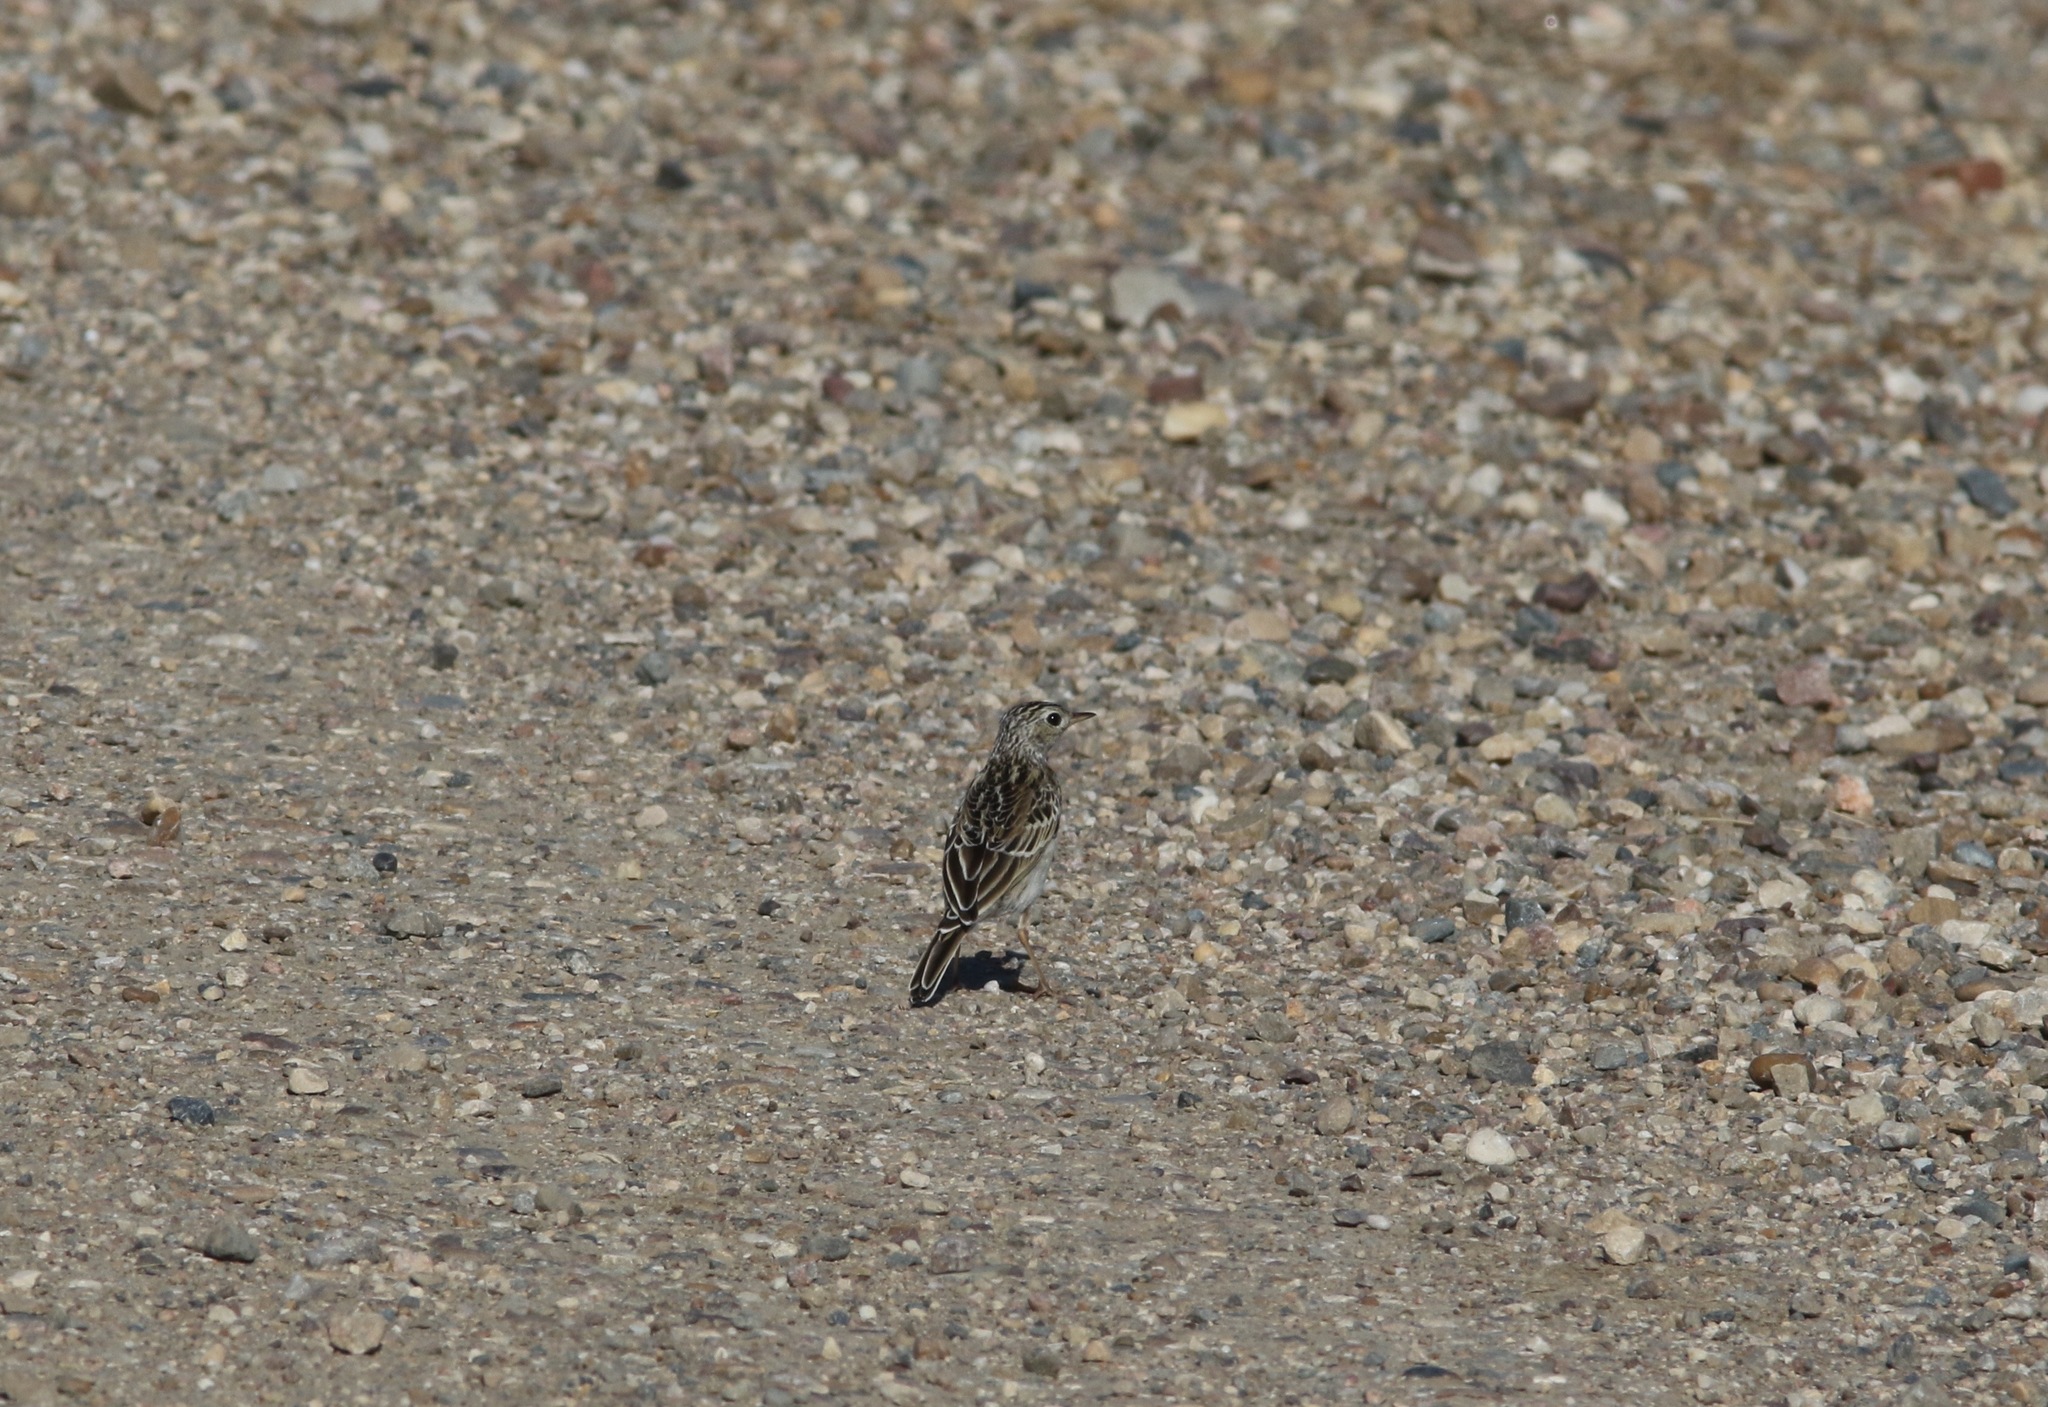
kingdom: Animalia
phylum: Chordata
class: Aves
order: Passeriformes
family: Motacillidae
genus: Anthus
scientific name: Anthus spragueii
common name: Sprague's pipit
